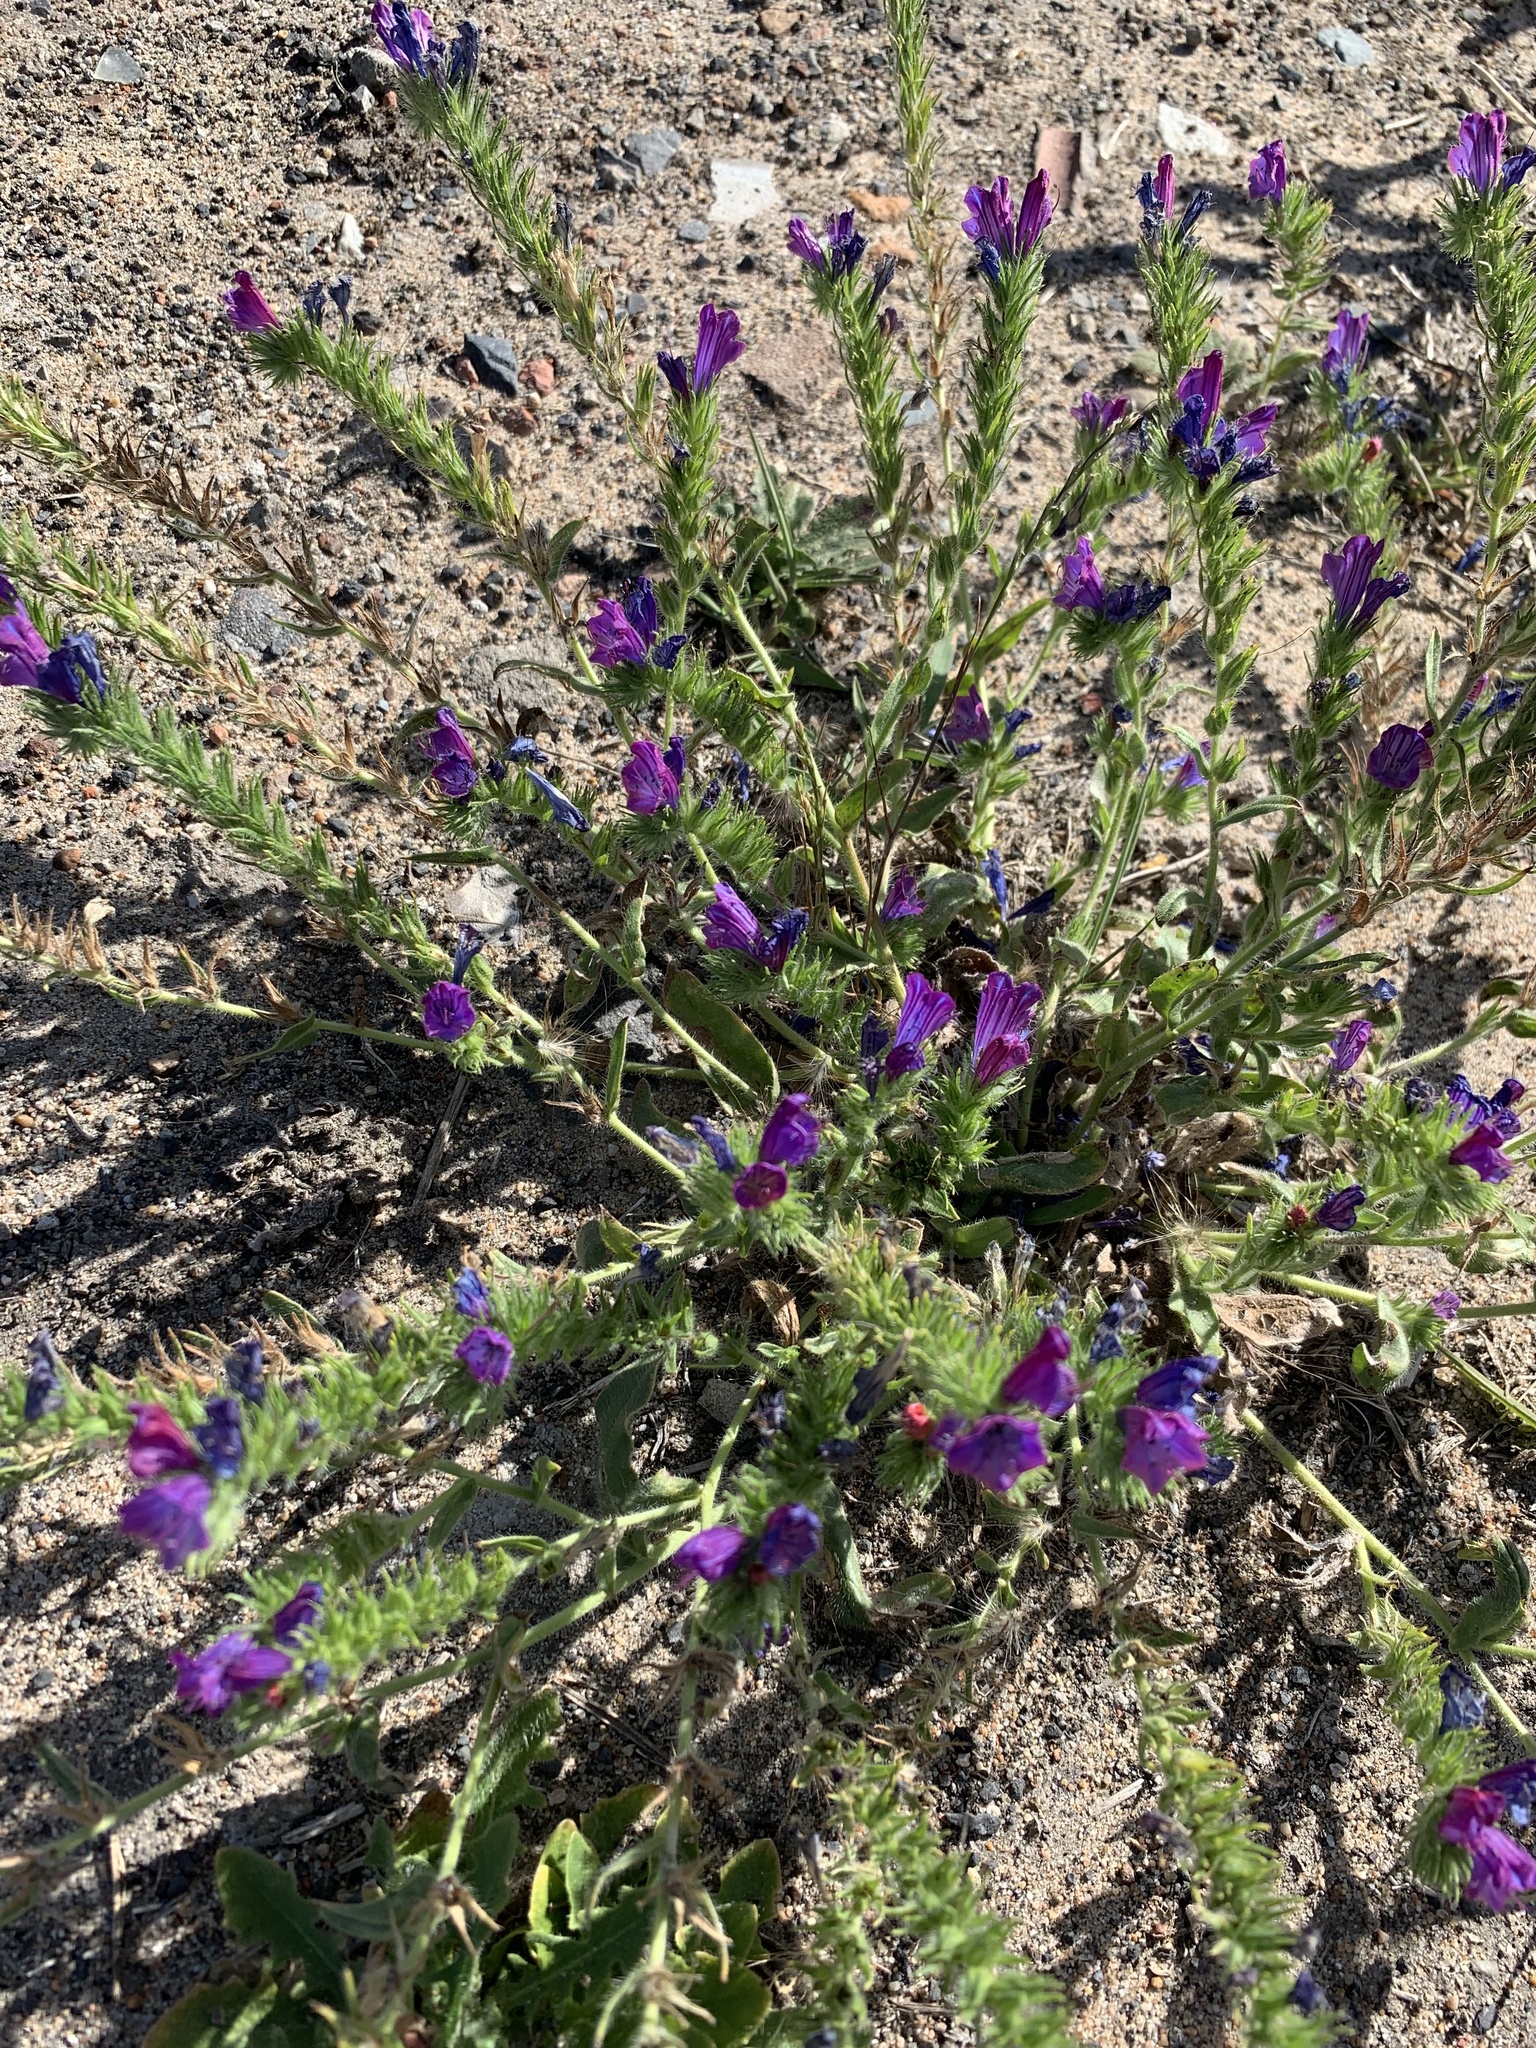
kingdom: Plantae
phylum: Tracheophyta
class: Magnoliopsida
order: Boraginales
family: Boraginaceae
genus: Echium
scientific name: Echium plantagineum
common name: Purple viper's-bugloss
